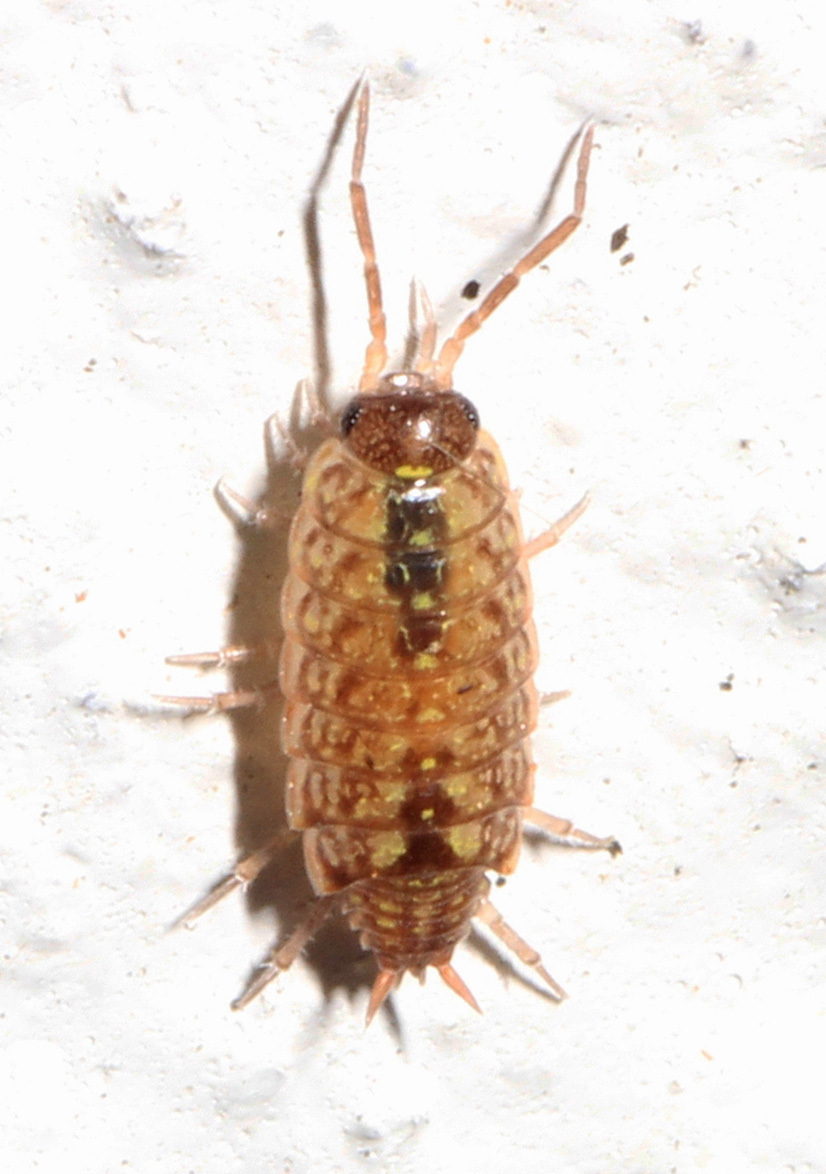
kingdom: Animalia
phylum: Arthropoda
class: Malacostraca
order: Isopoda
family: Philosciidae
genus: Philoscia
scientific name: Philoscia muscorum
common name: Common striped woodlouse
